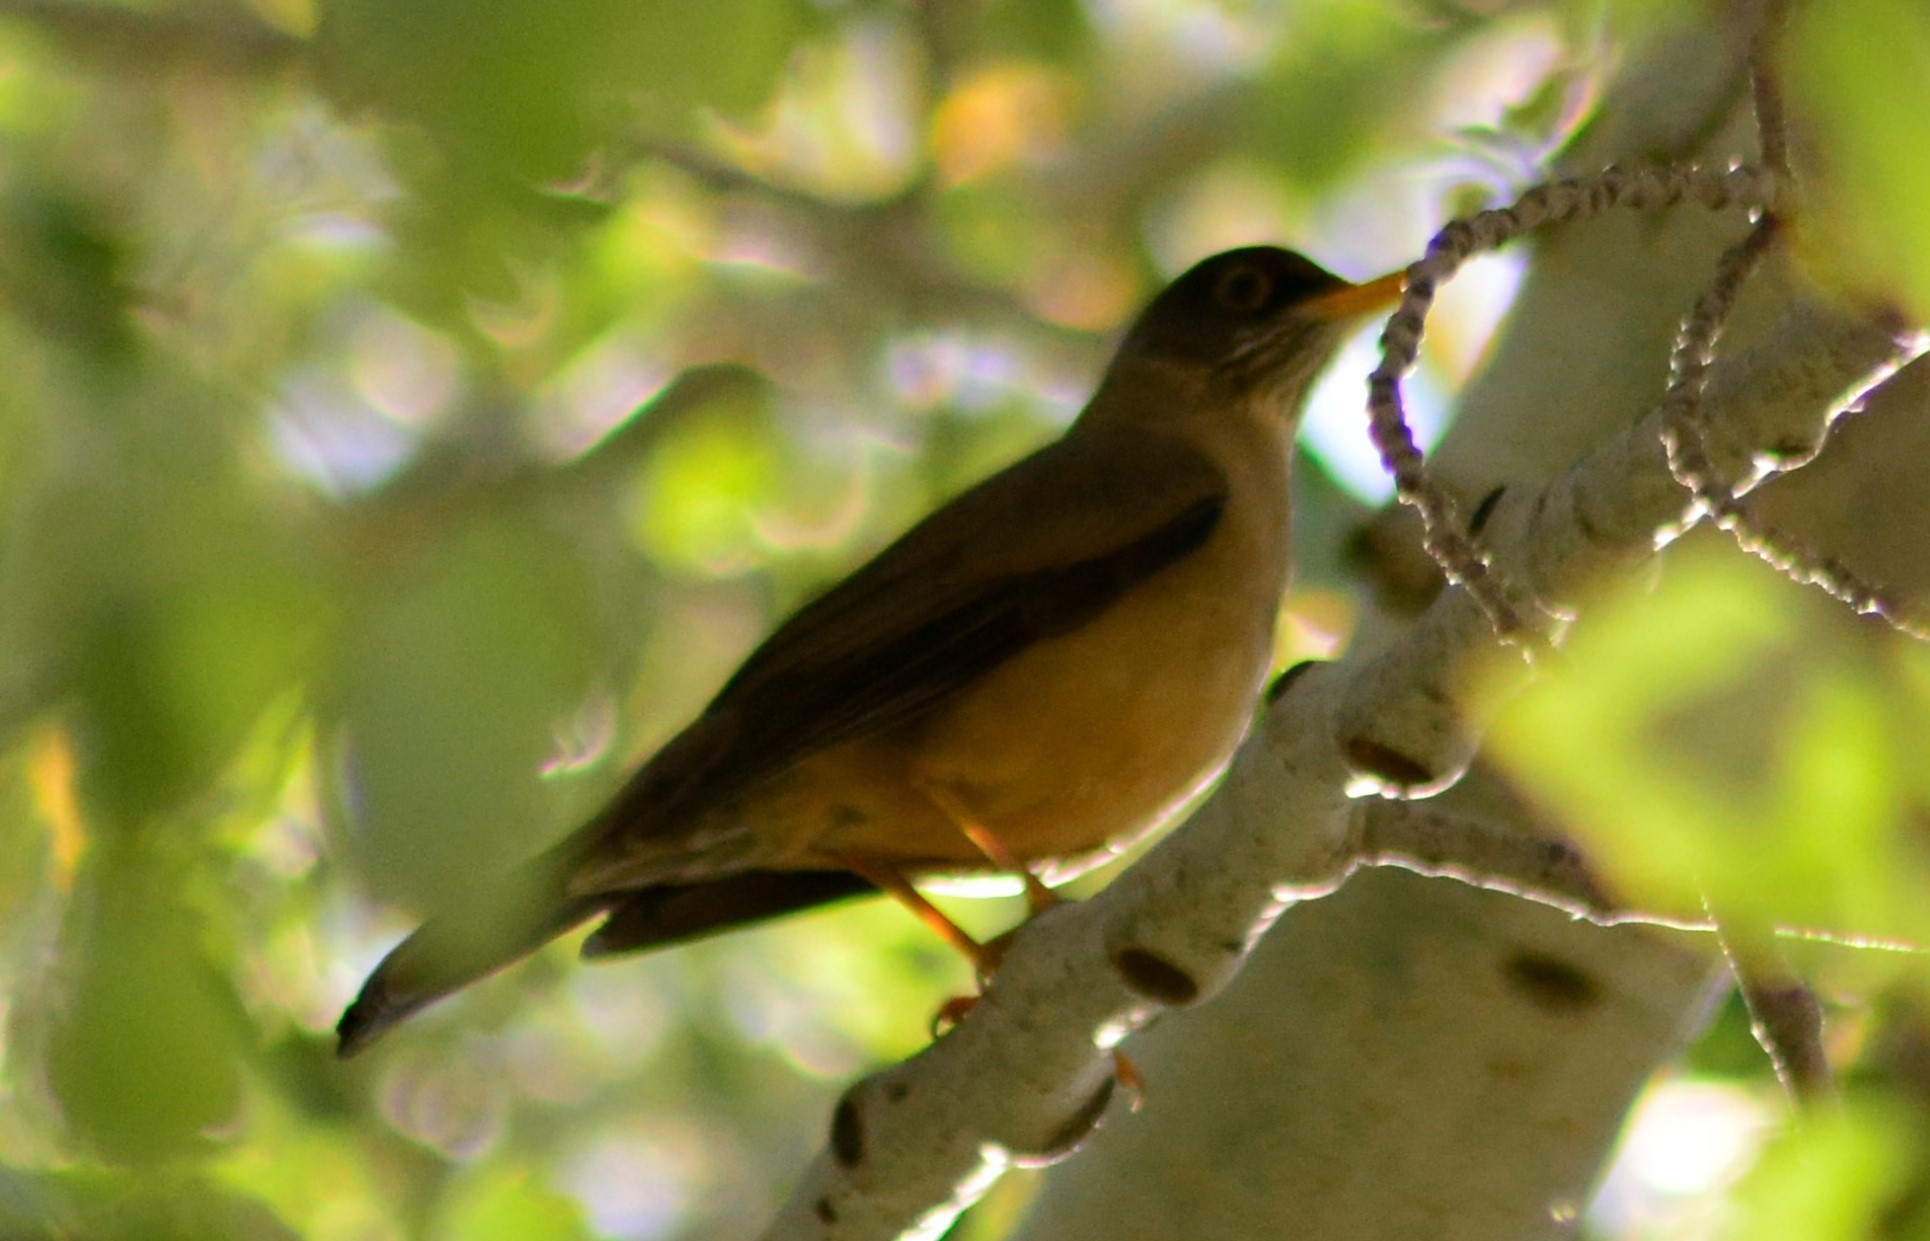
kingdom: Animalia
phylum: Chordata
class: Aves
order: Passeriformes
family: Turdidae
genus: Turdus
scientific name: Turdus falcklandii
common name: Austral thrush
